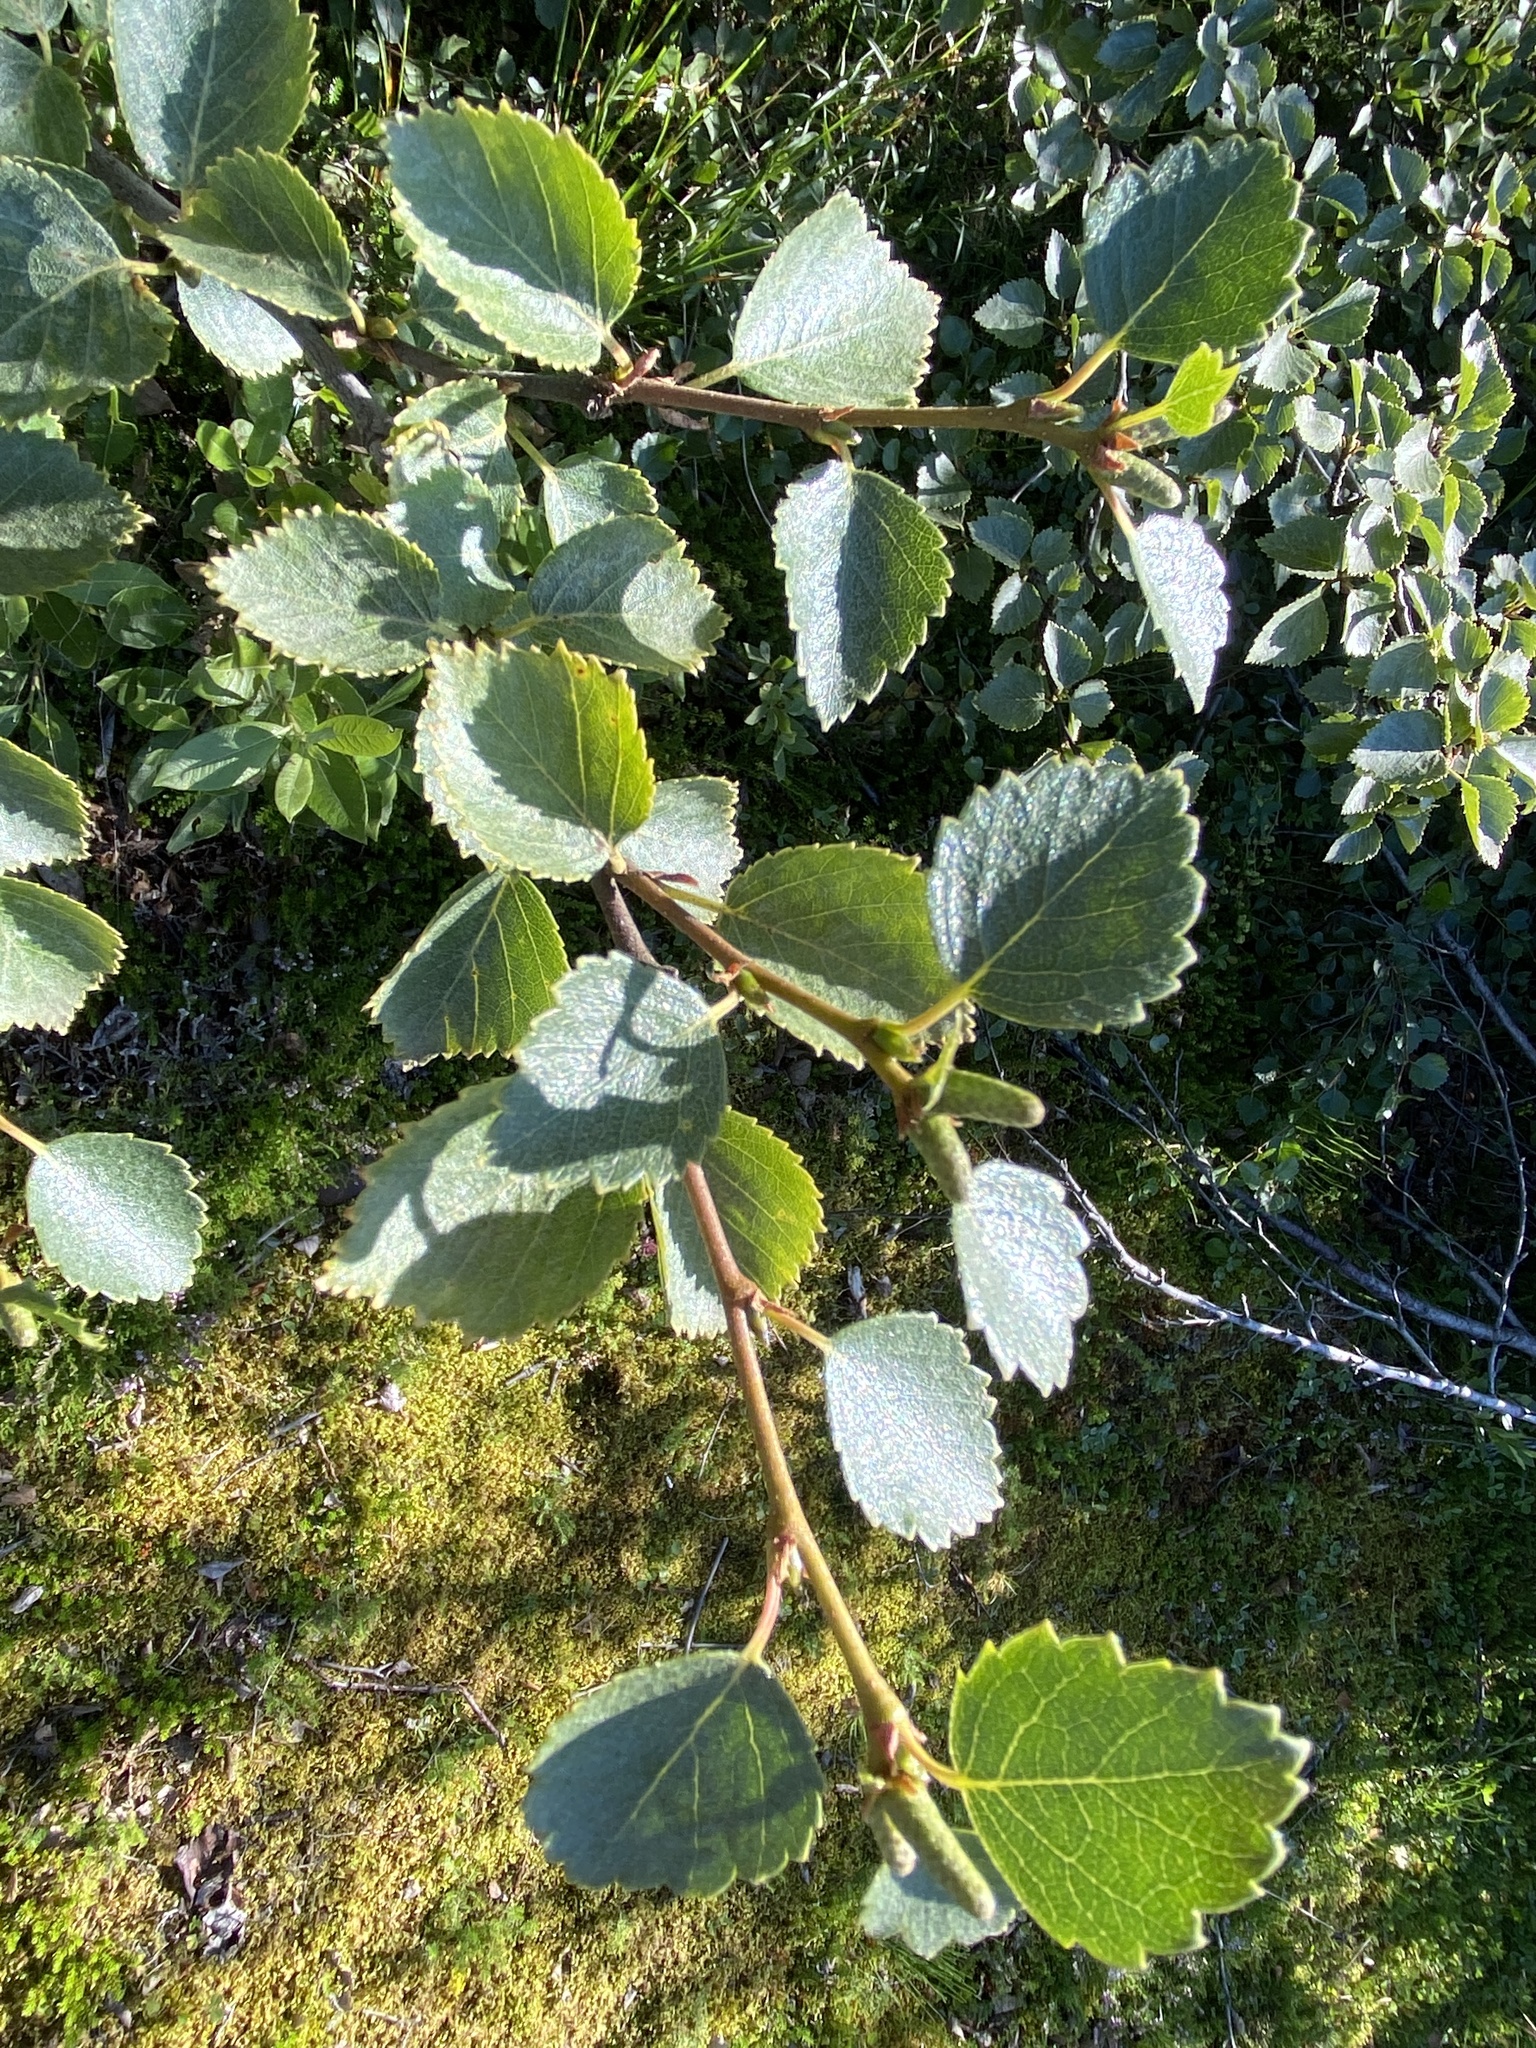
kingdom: Plantae
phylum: Tracheophyta
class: Magnoliopsida
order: Fagales
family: Betulaceae
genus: Betula
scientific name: Betula pubescens
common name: Downy birch
